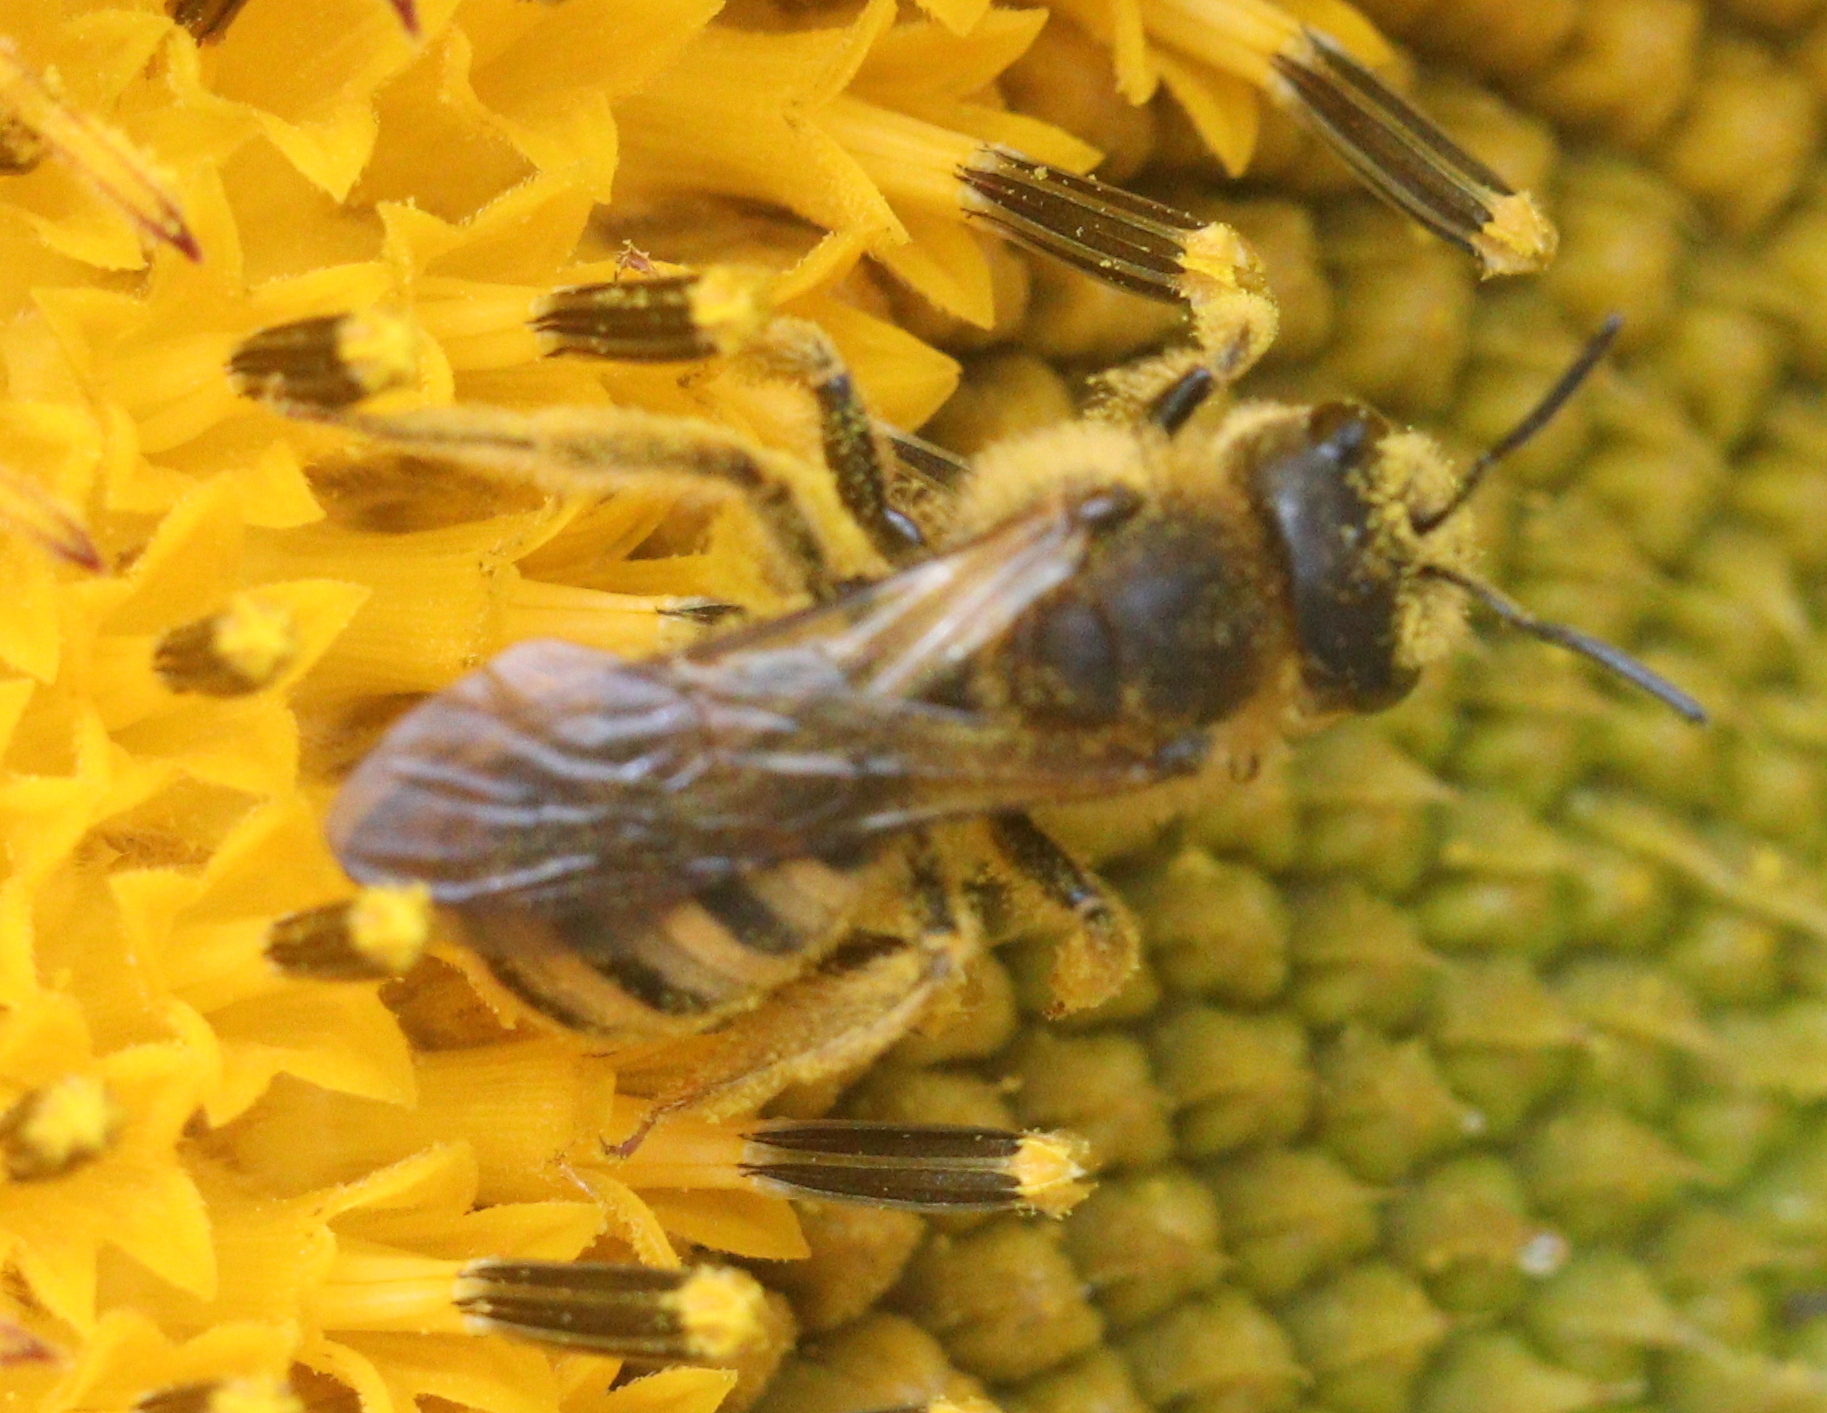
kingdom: Animalia
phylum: Arthropoda
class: Insecta
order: Hymenoptera
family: Halictidae
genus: Halictus
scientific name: Halictus scabiosae
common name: Great banded furrow bee
